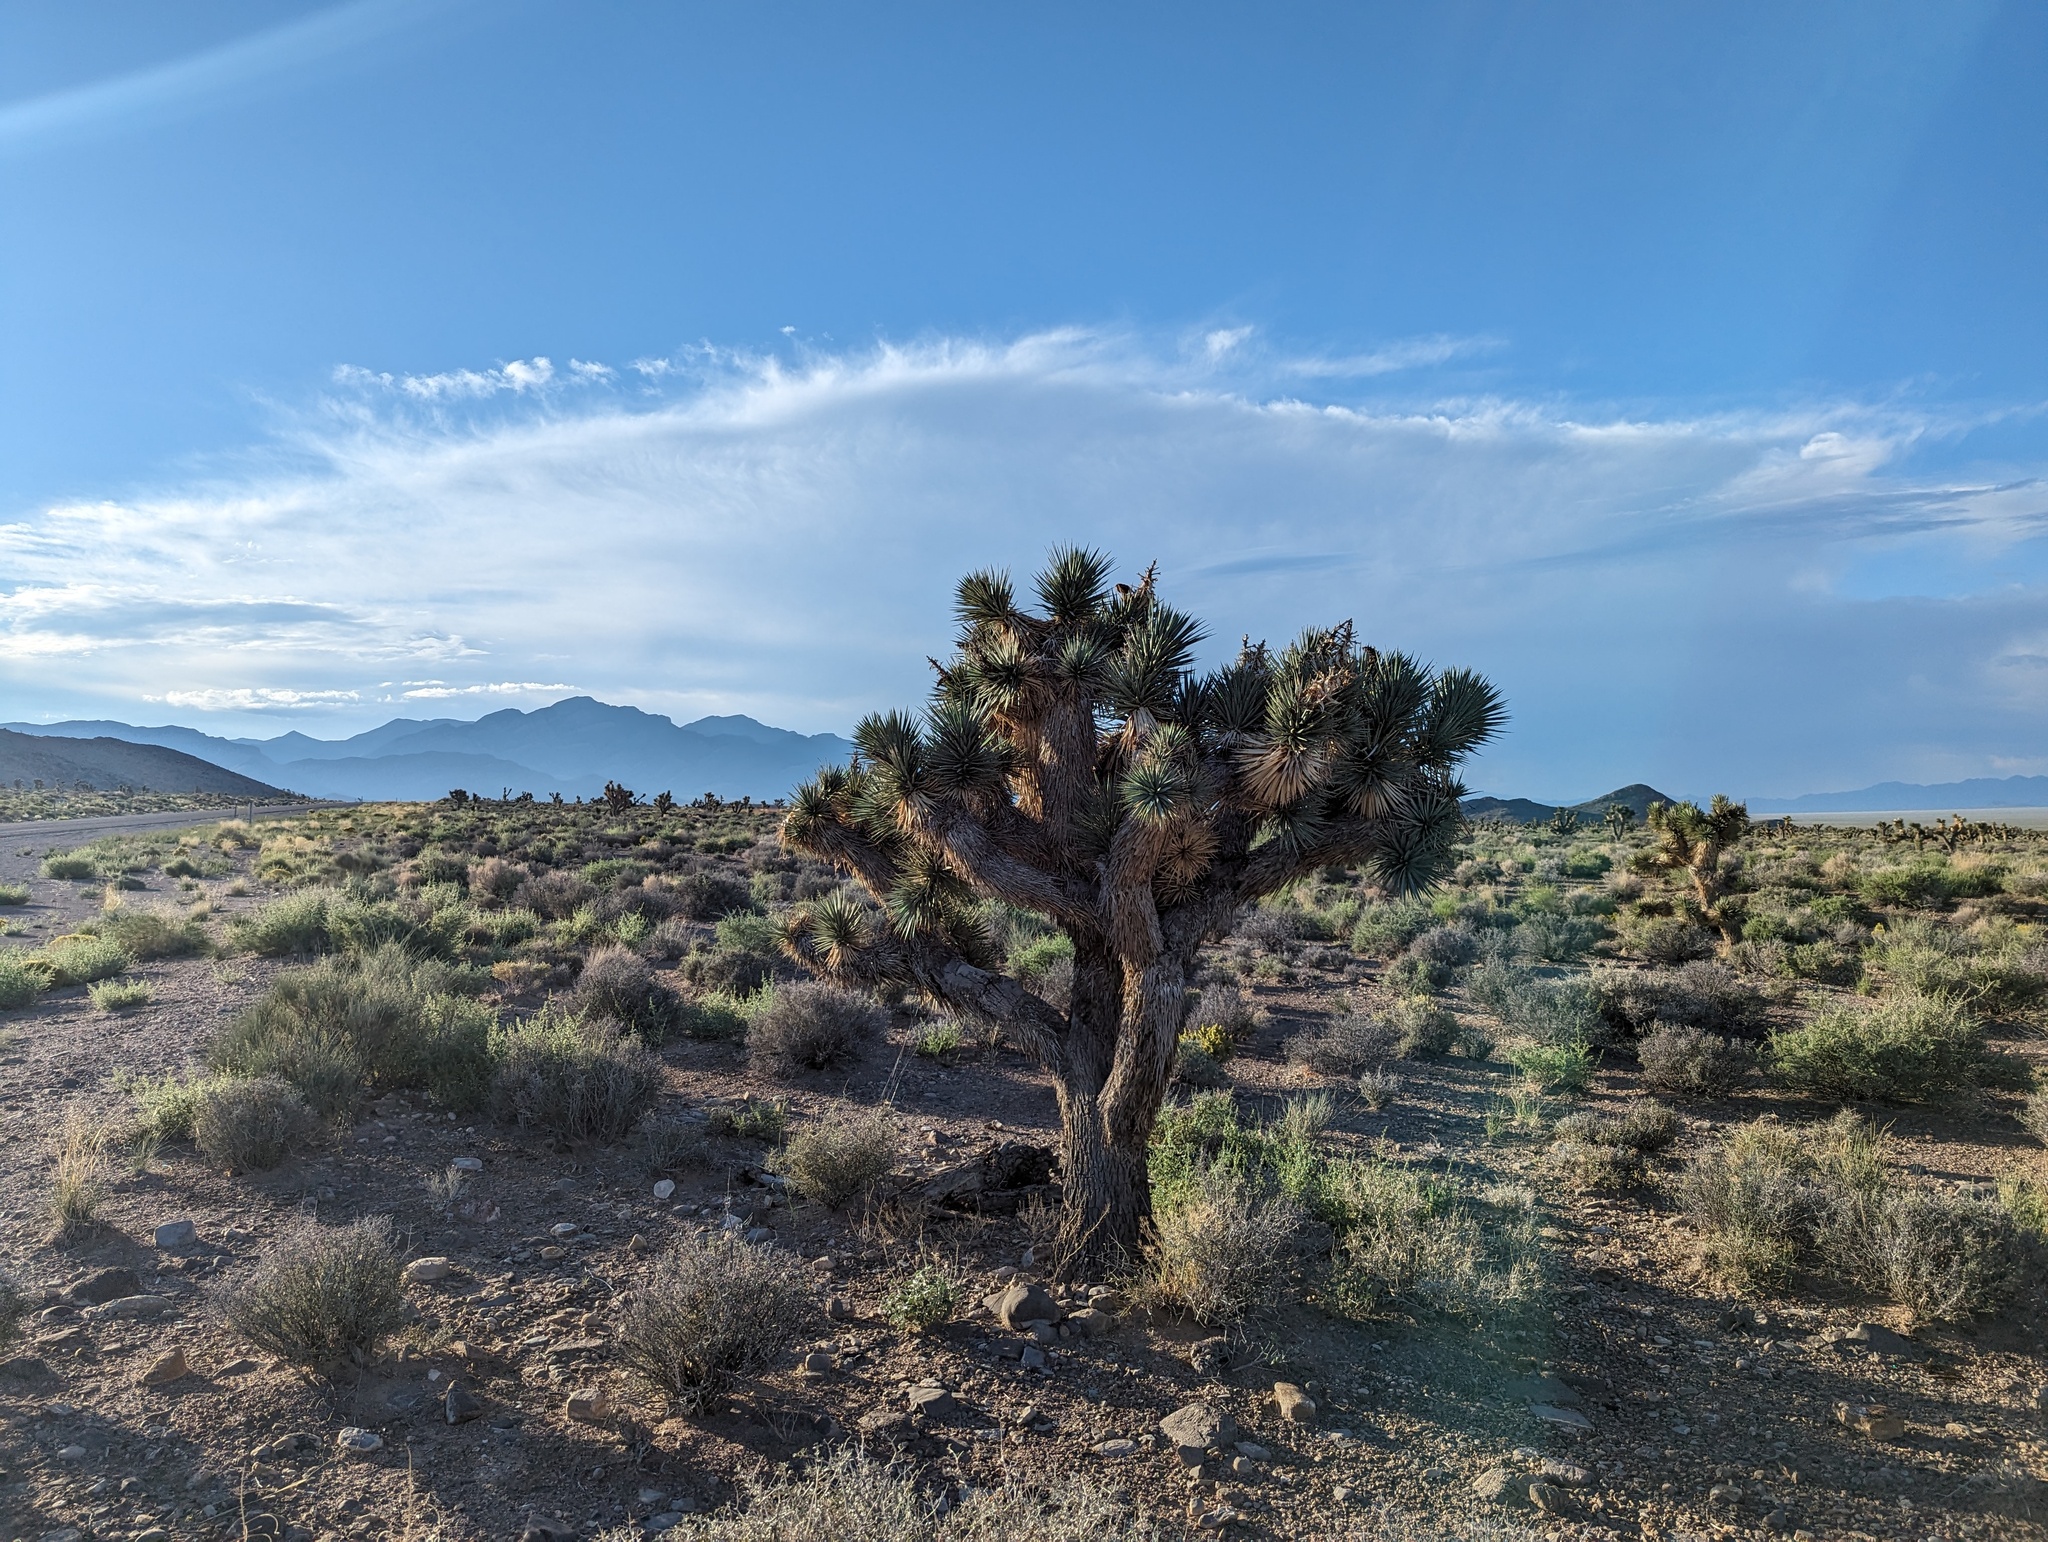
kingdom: Plantae
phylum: Tracheophyta
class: Liliopsida
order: Asparagales
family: Asparagaceae
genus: Yucca
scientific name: Yucca brevifolia
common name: Joshua tree
